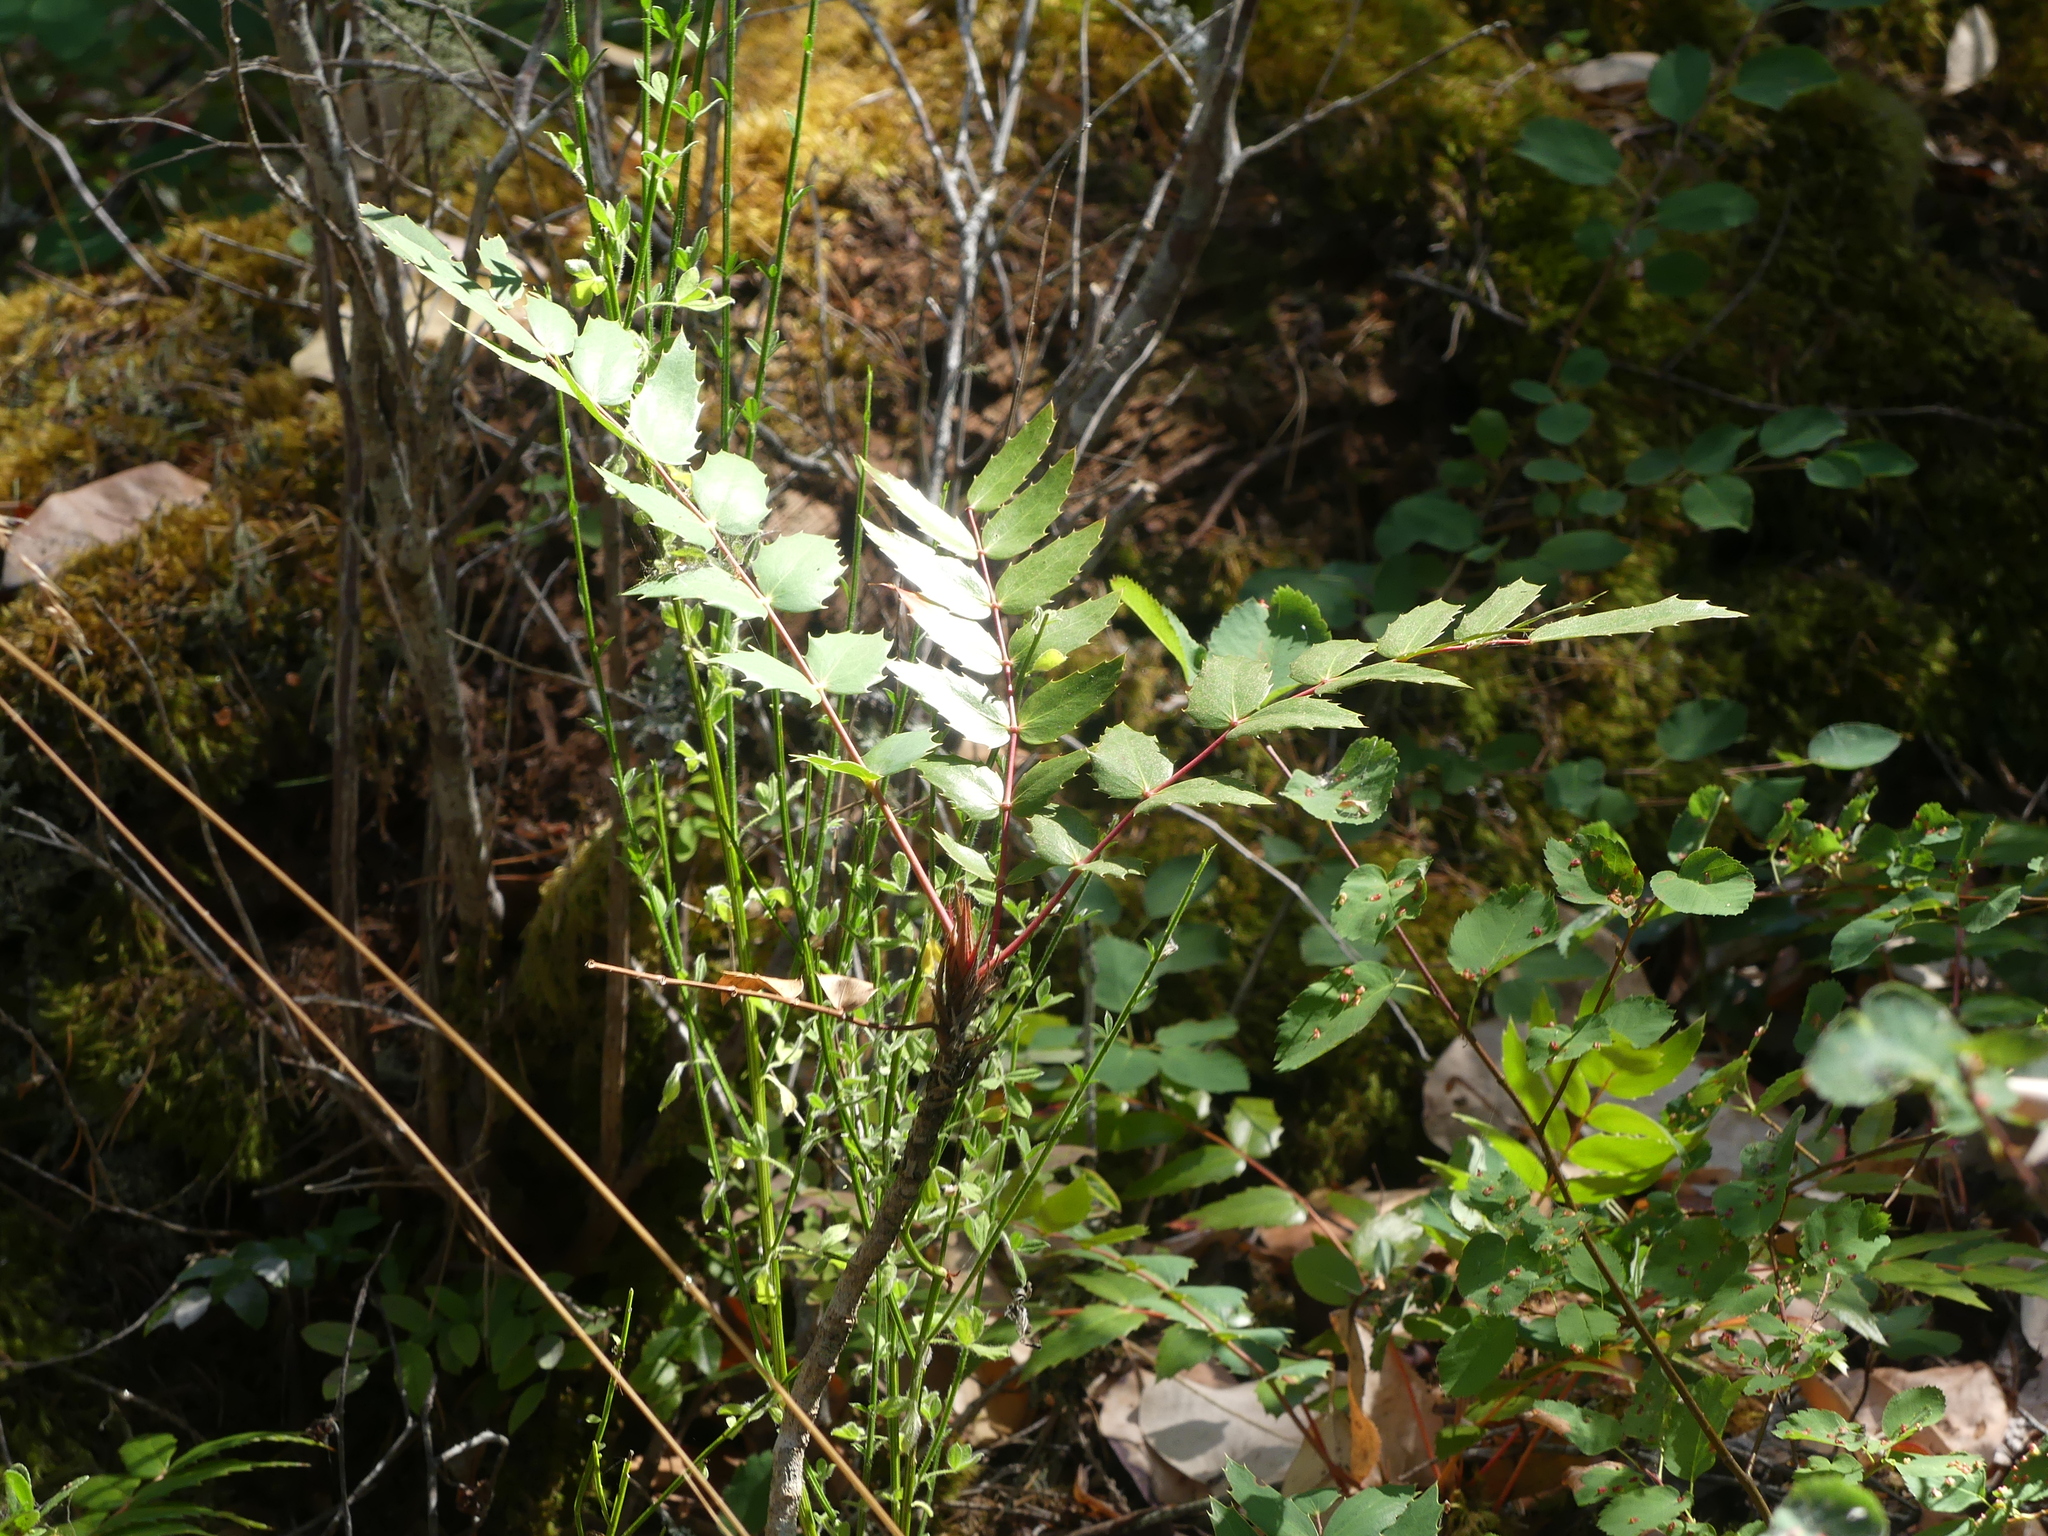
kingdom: Plantae
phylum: Tracheophyta
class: Magnoliopsida
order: Ranunculales
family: Berberidaceae
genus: Mahonia
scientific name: Mahonia nervosa
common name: Cascade oregon-grape
